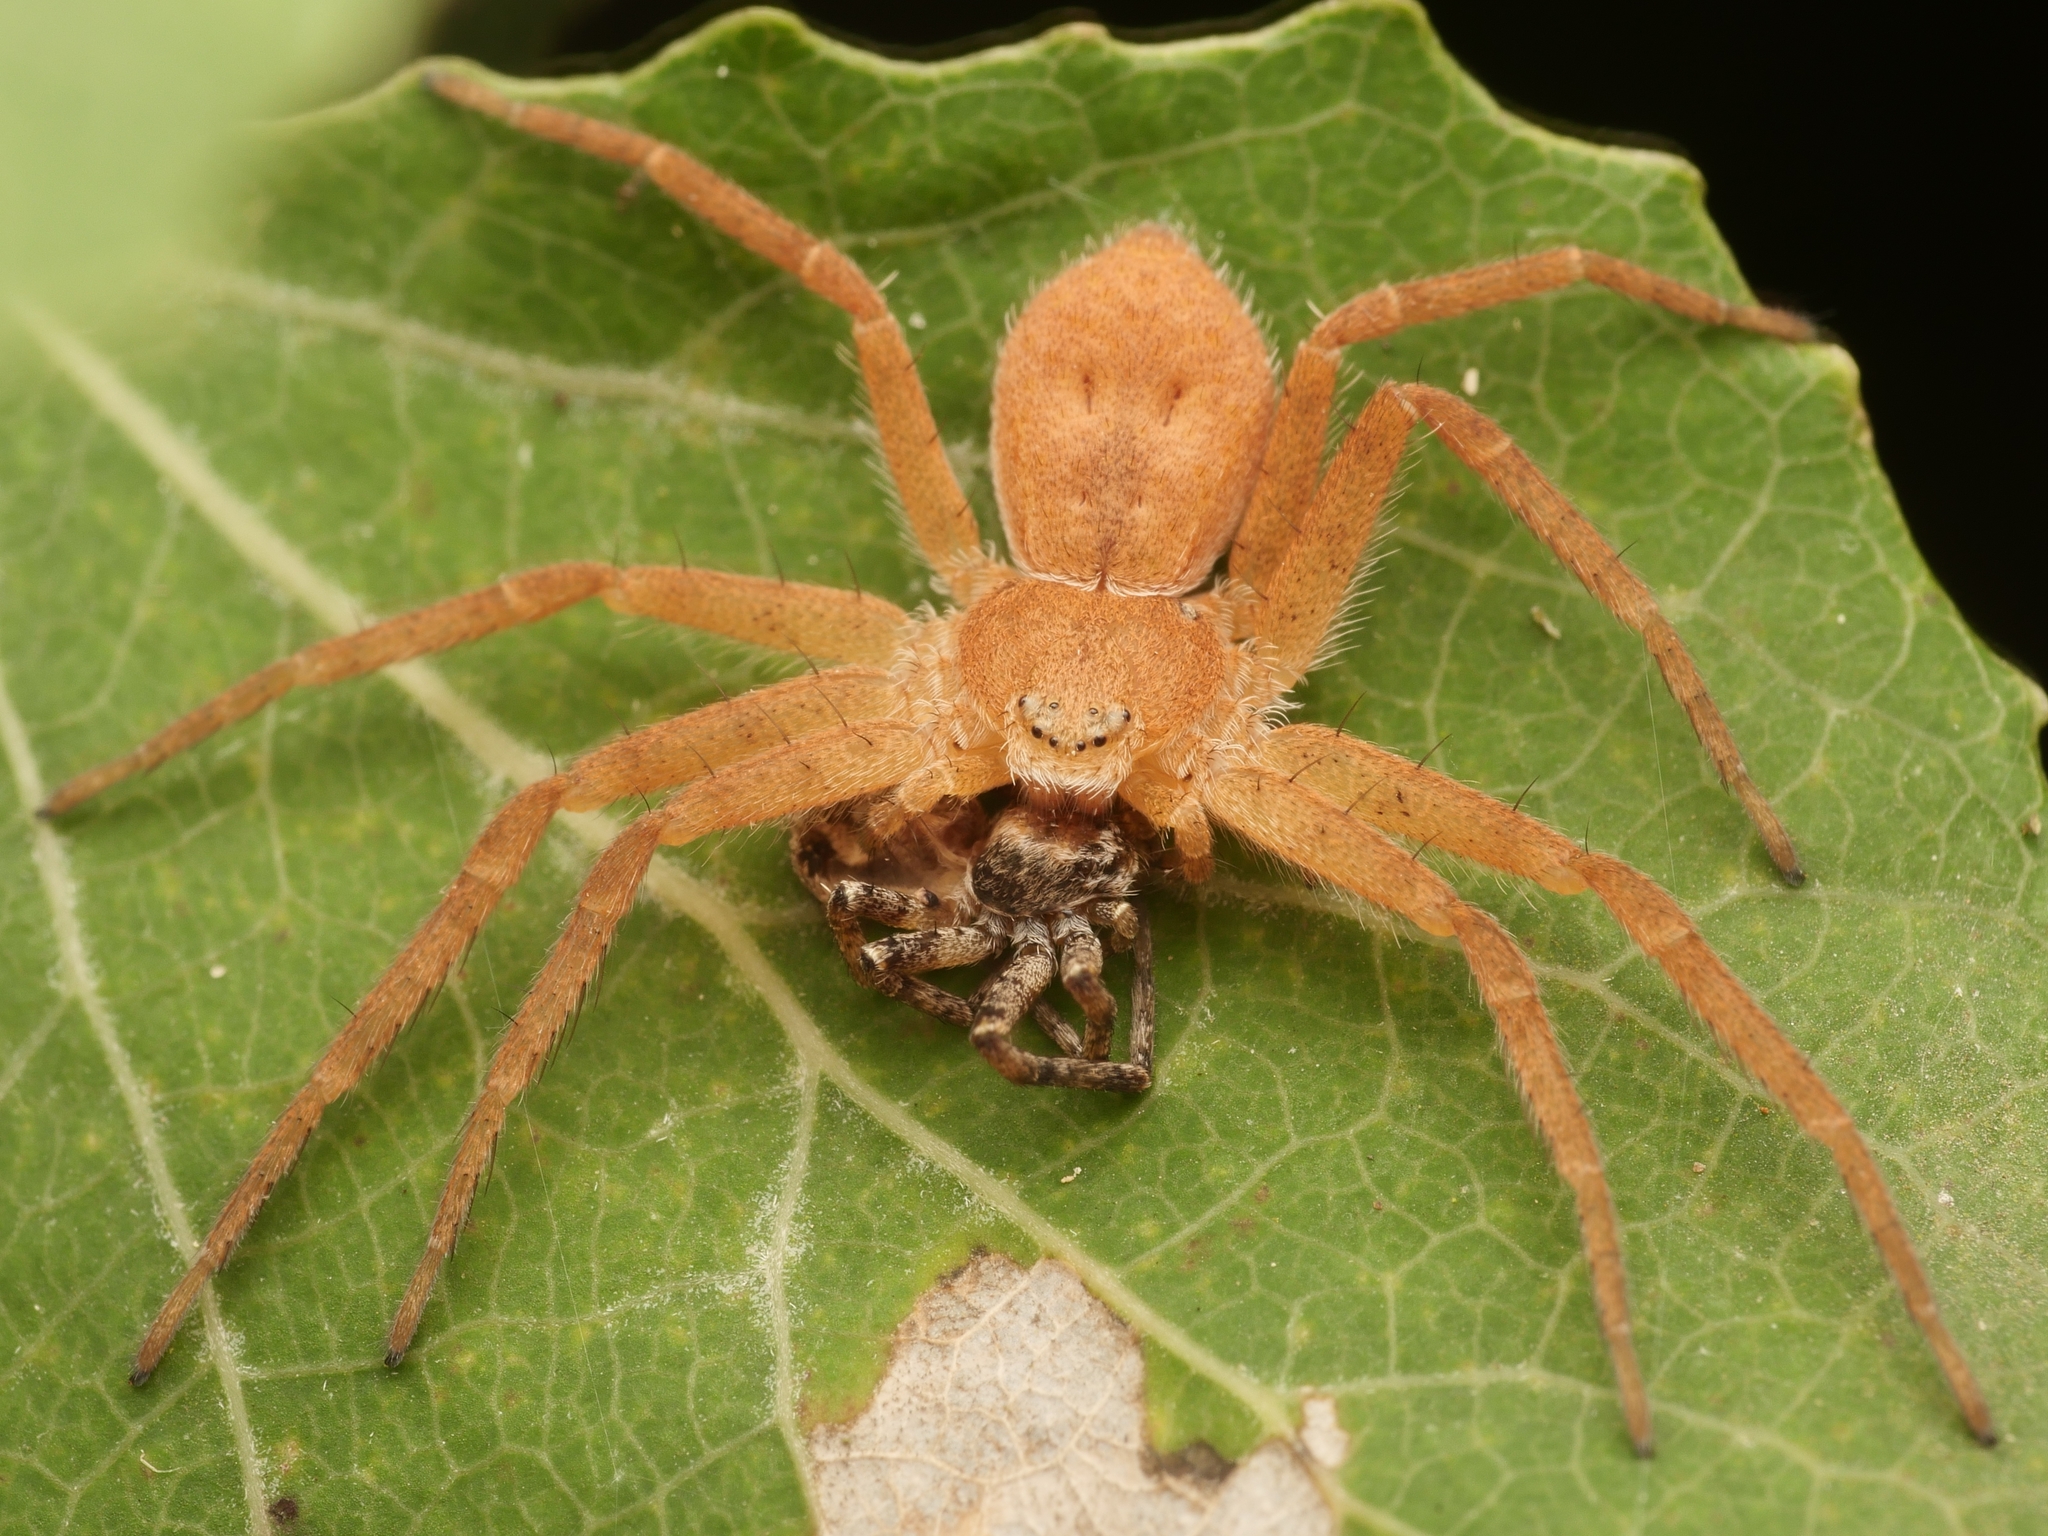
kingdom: Animalia
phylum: Arthropoda
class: Arachnida
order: Araneae
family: Philodromidae
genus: Philodromus
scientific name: Philodromus fuscomarginatus
